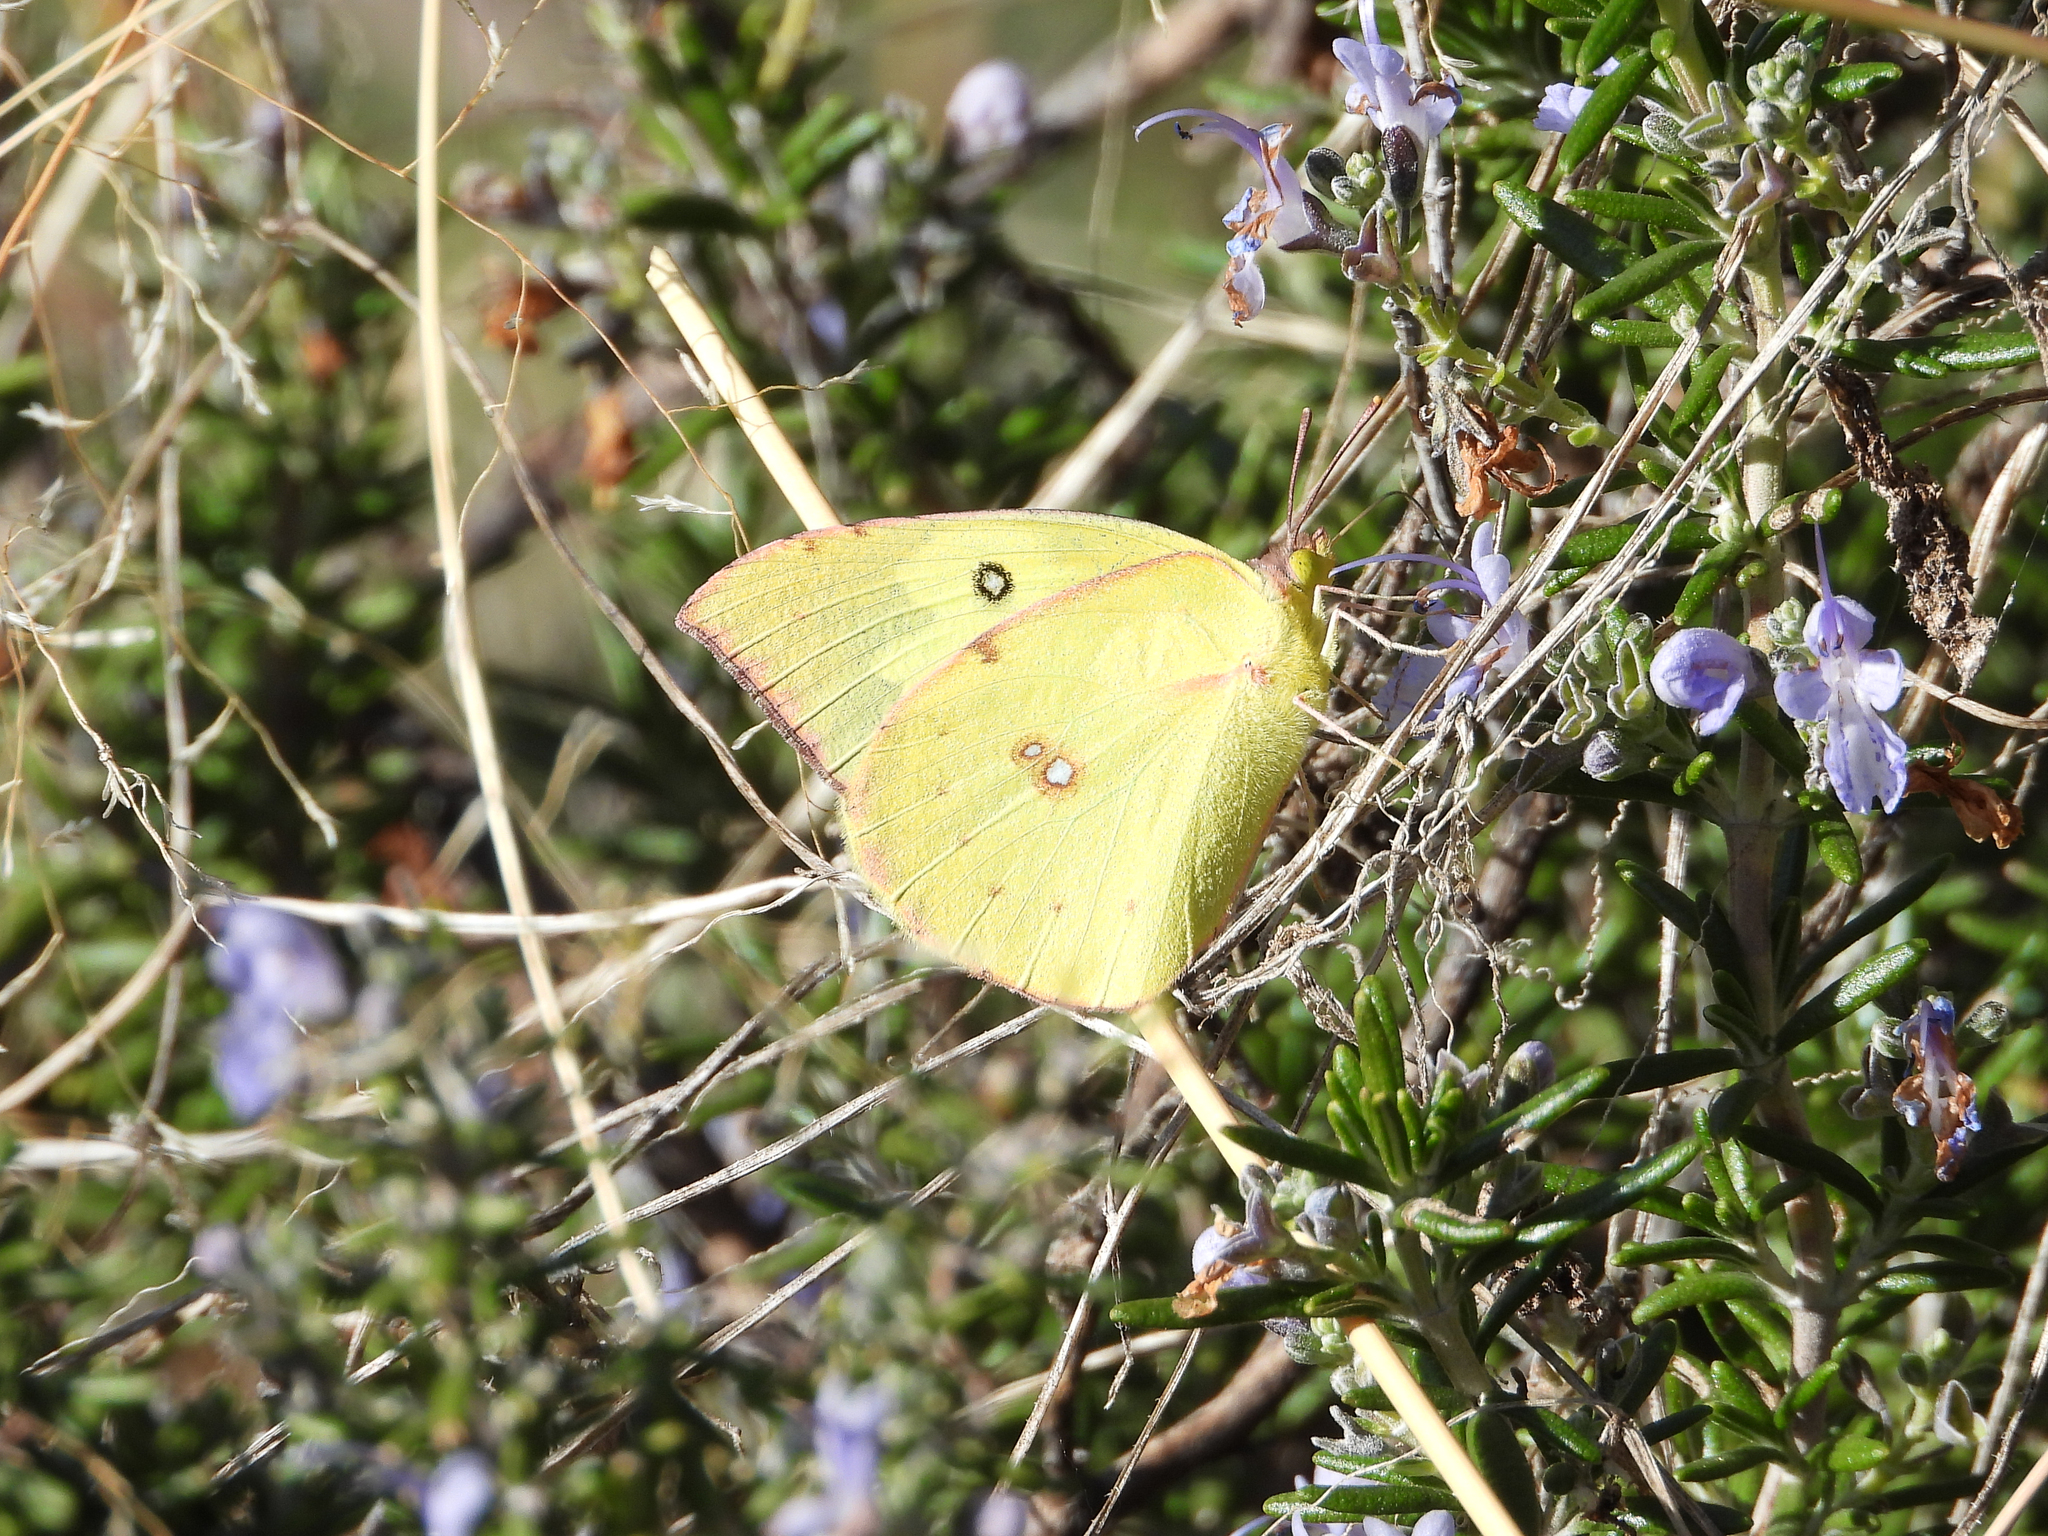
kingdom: Animalia
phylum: Arthropoda
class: Insecta
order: Lepidoptera
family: Pieridae
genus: Zerene
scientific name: Zerene cesonia
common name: Southern dogface
